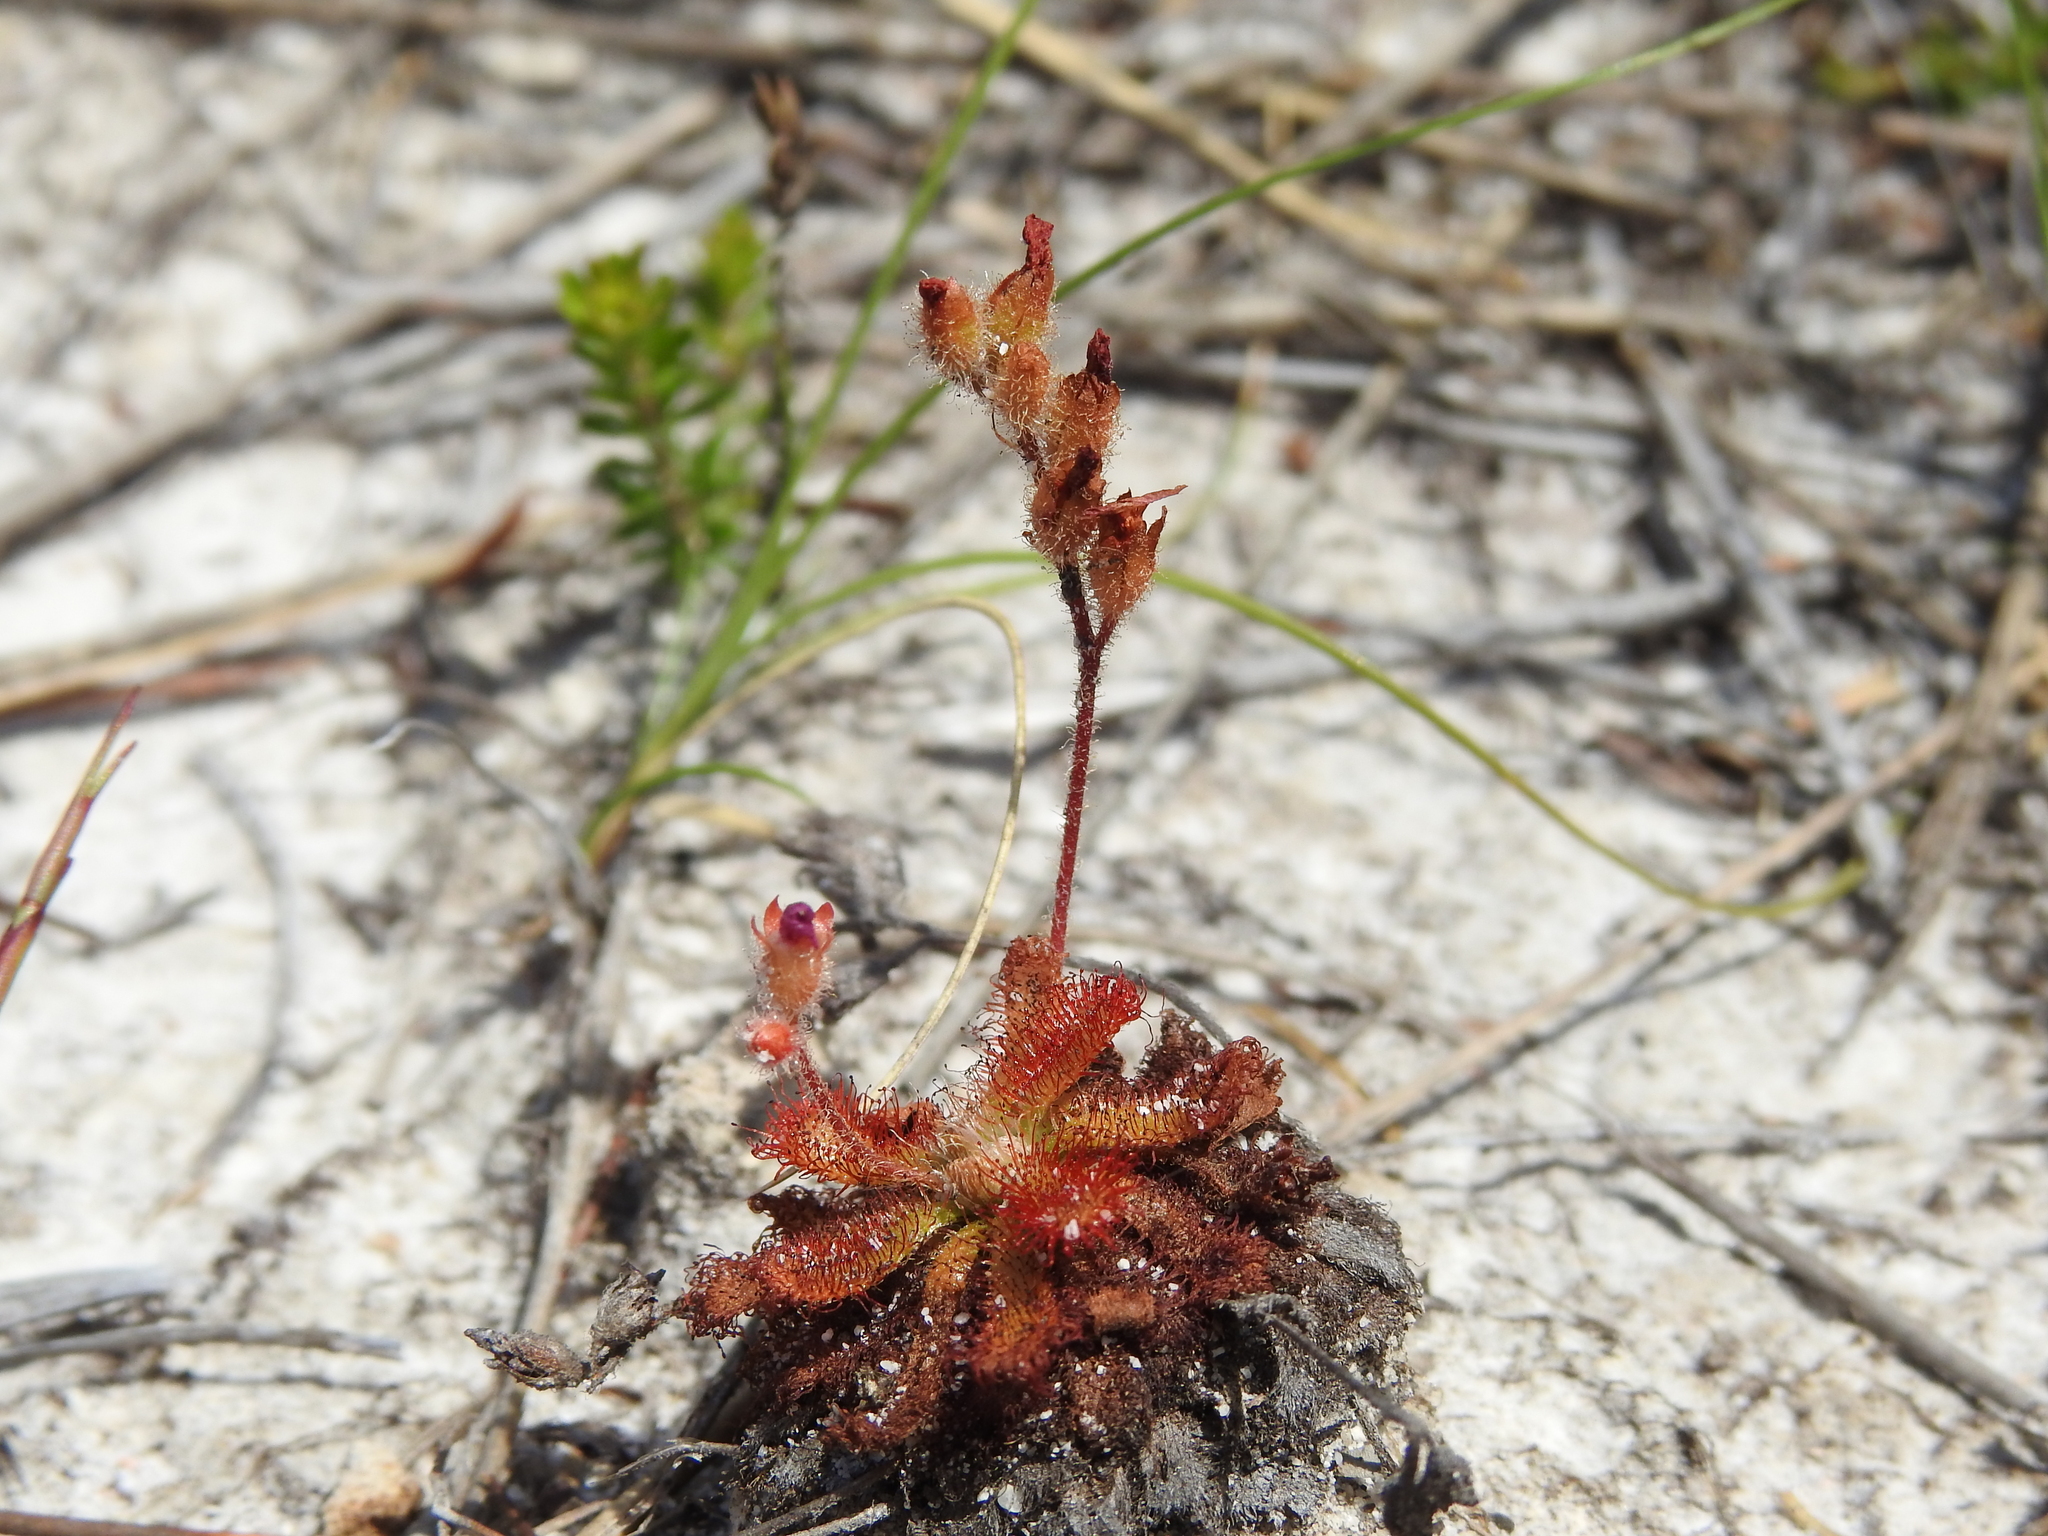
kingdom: Plantae
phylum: Tracheophyta
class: Magnoliopsida
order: Caryophyllales
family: Droseraceae
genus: Drosera
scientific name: Drosera spatulata
